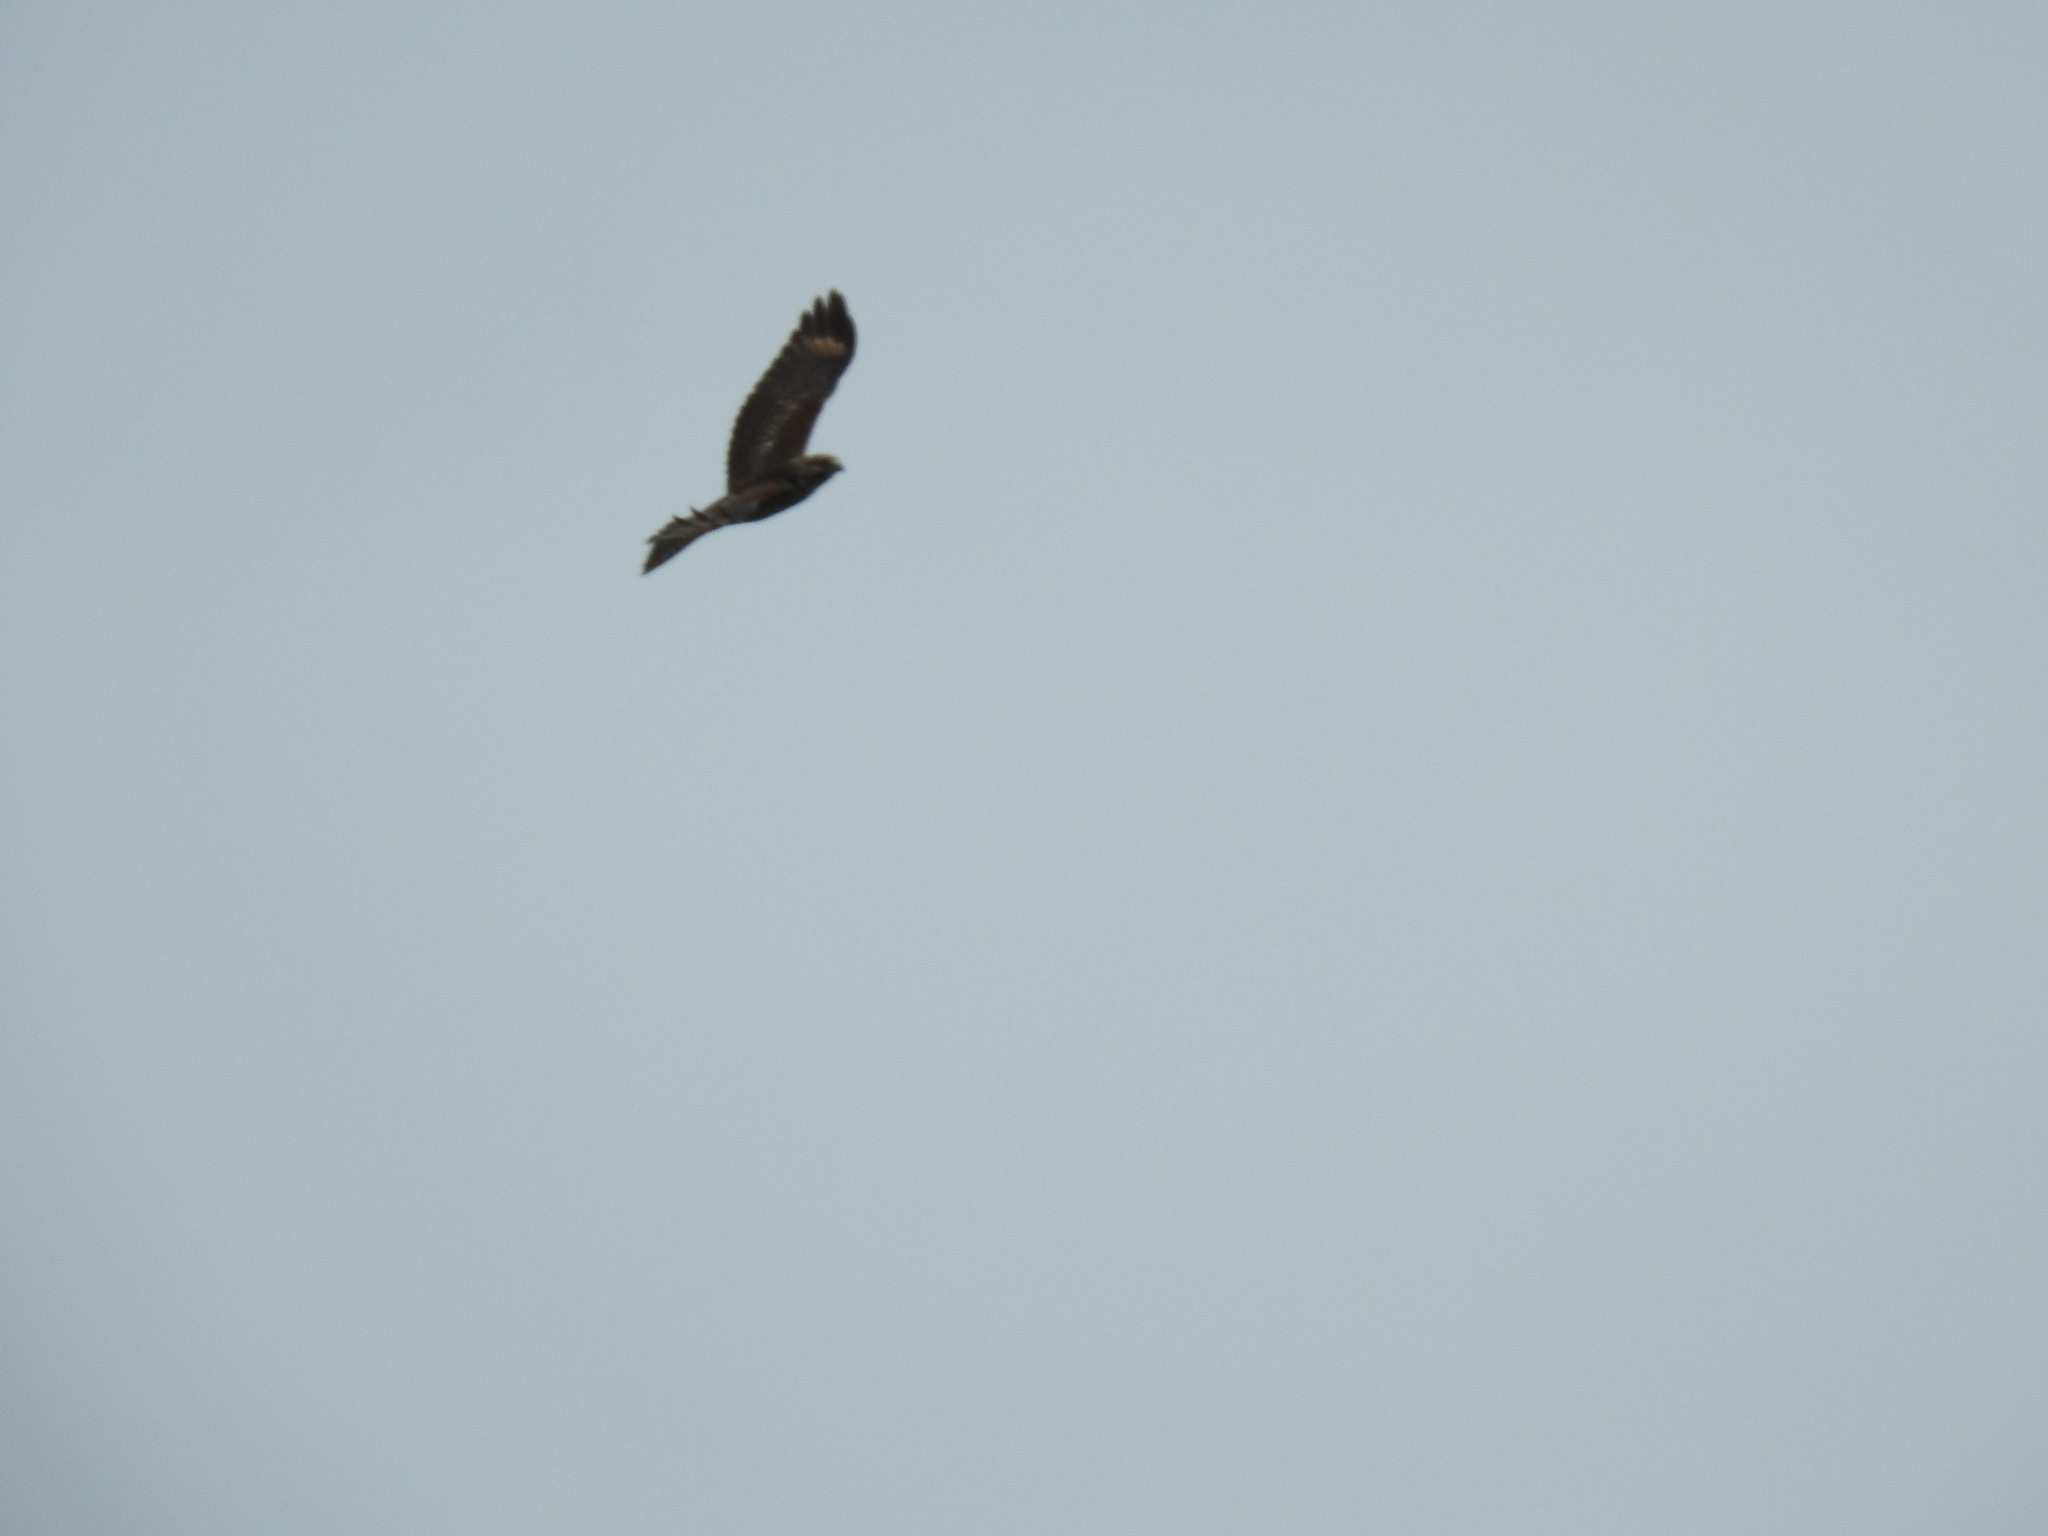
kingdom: Animalia
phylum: Chordata
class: Aves
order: Accipitriformes
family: Accipitridae
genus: Buteo
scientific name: Buteo lineatus
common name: Red-shouldered hawk
